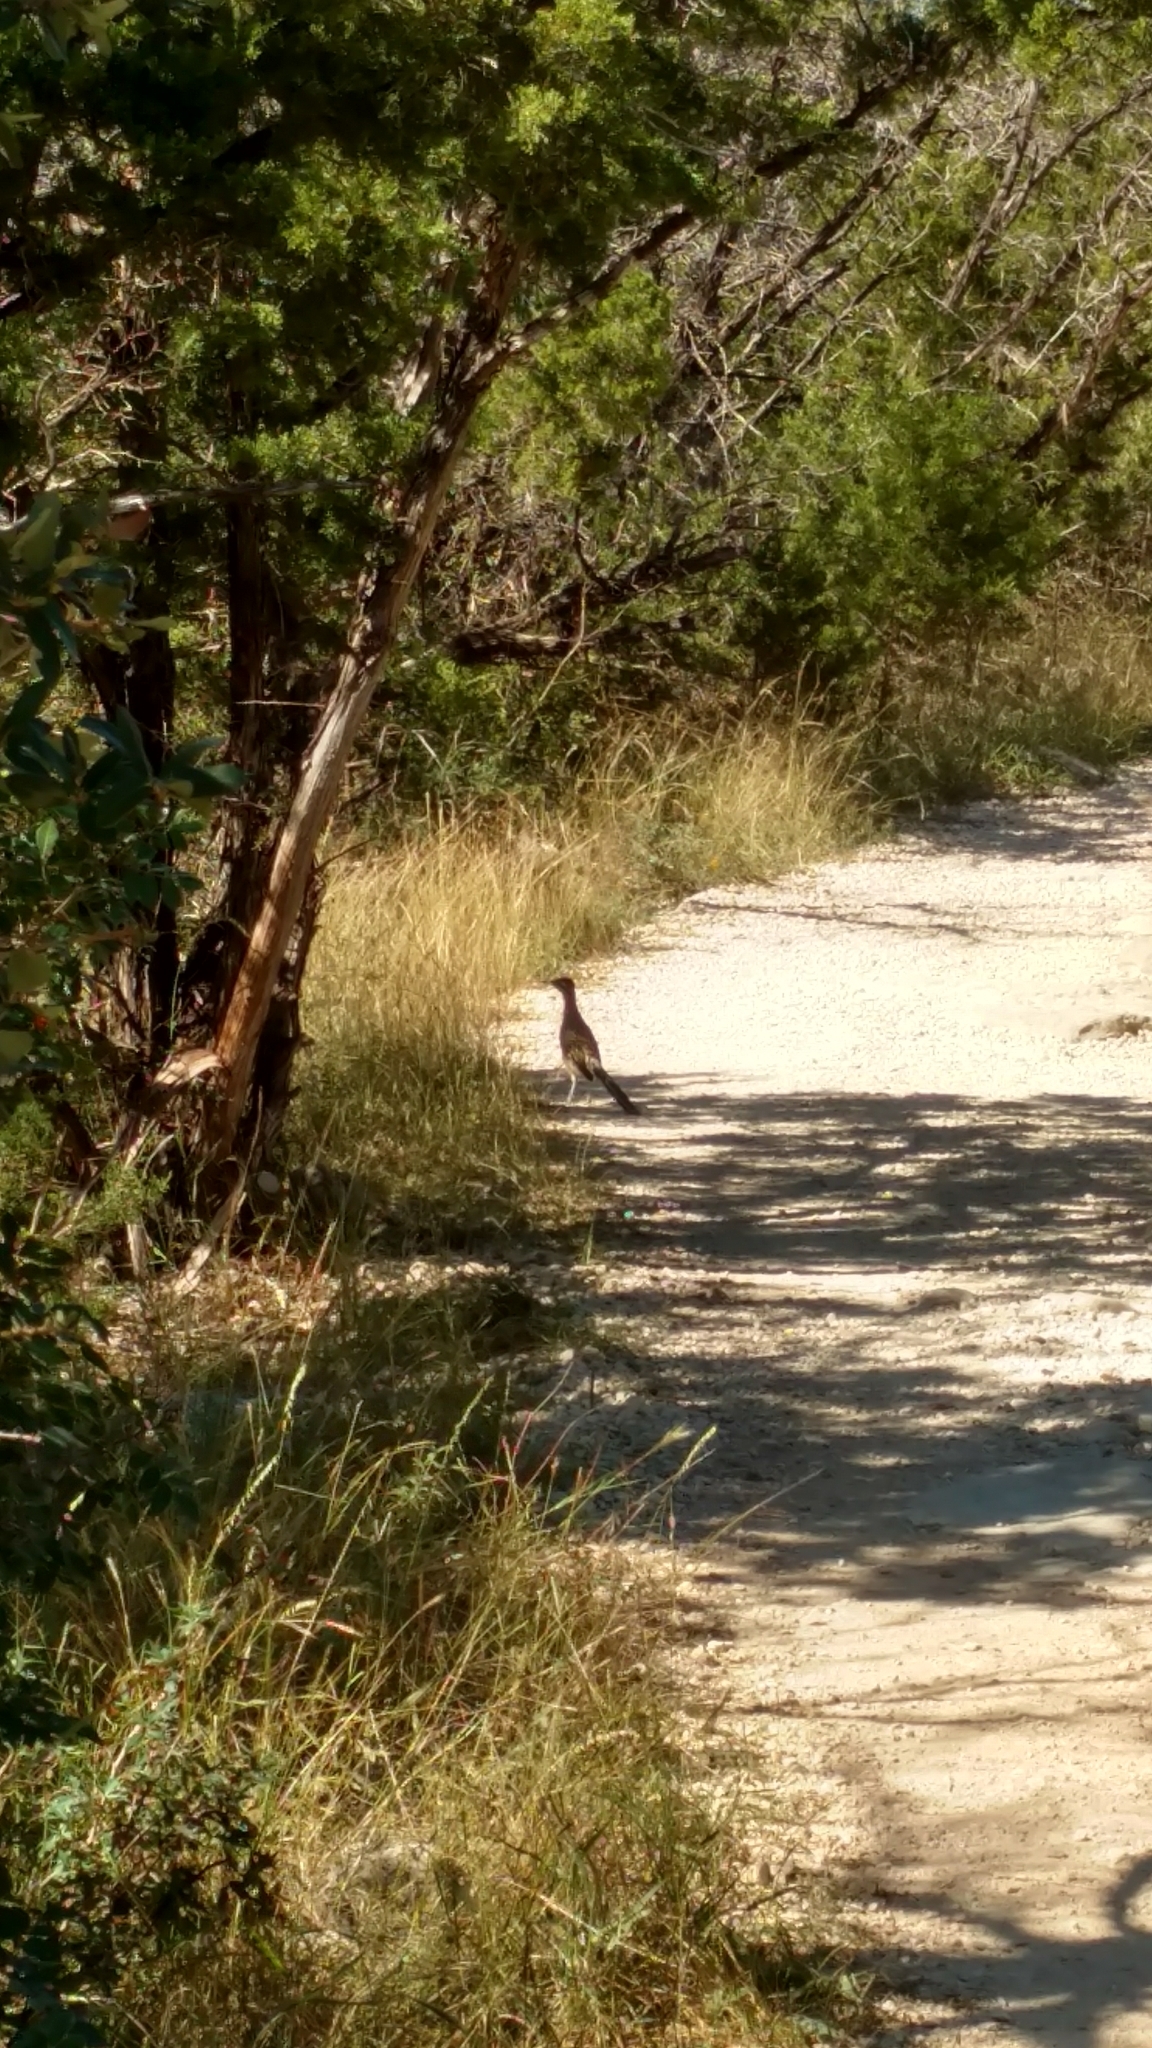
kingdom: Animalia
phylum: Chordata
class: Aves
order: Cuculiformes
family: Cuculidae
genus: Geococcyx
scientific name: Geococcyx californianus
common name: Greater roadrunner
